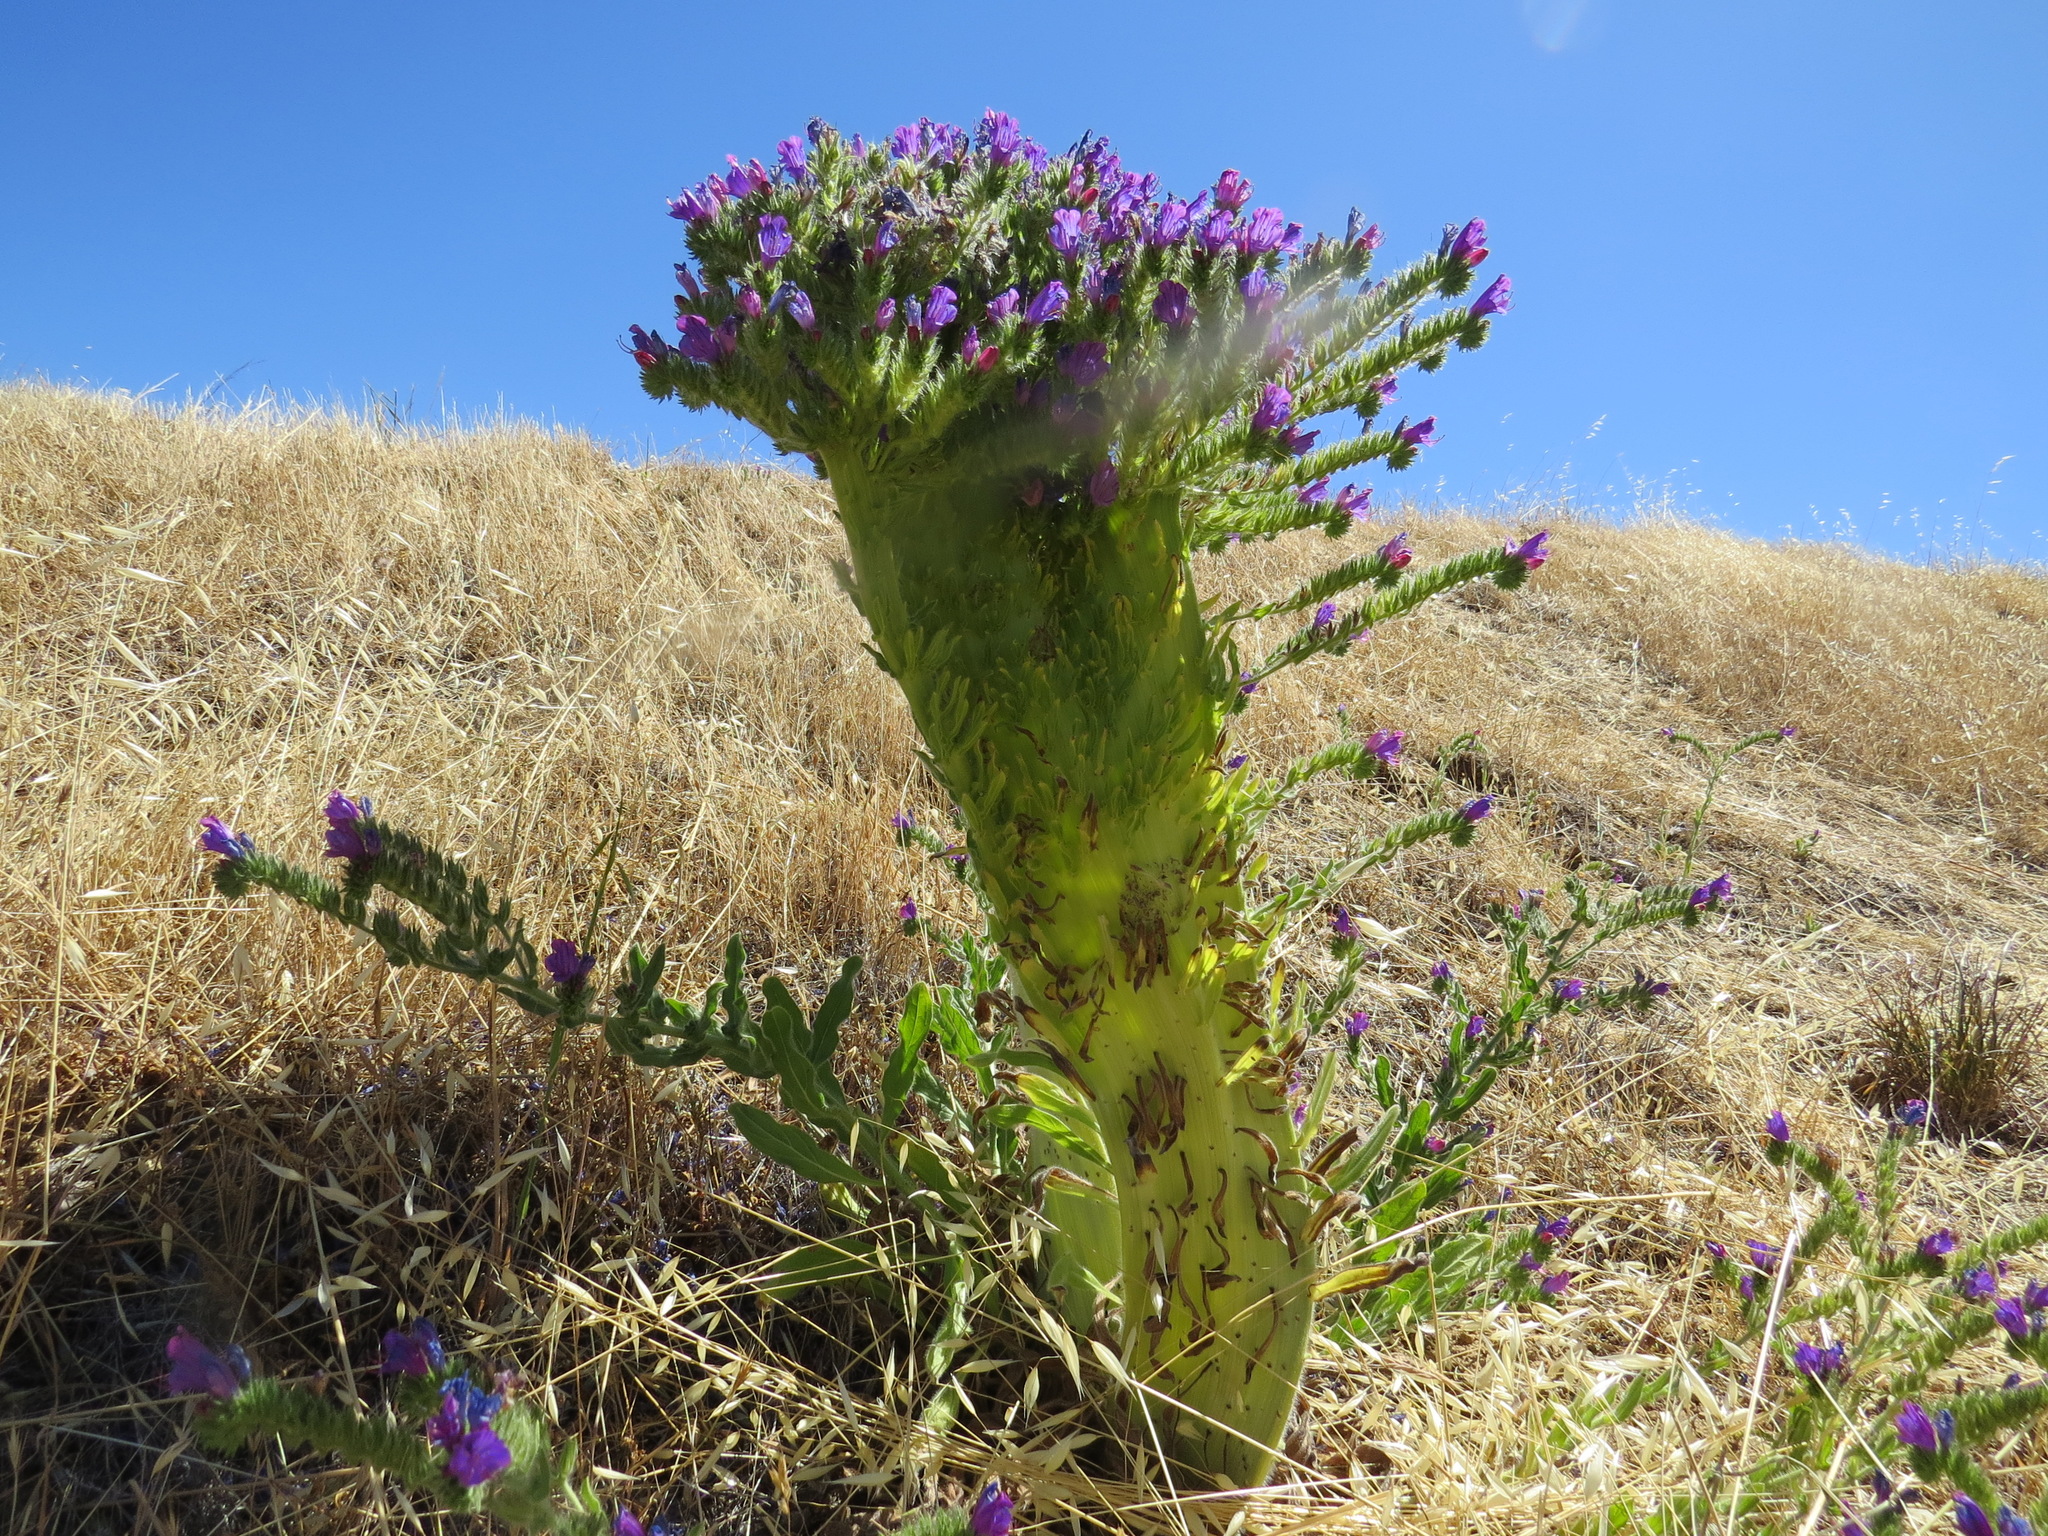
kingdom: Plantae
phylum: Tracheophyta
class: Magnoliopsida
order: Boraginales
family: Boraginaceae
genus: Echium
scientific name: Echium plantagineum
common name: Purple viper's-bugloss
